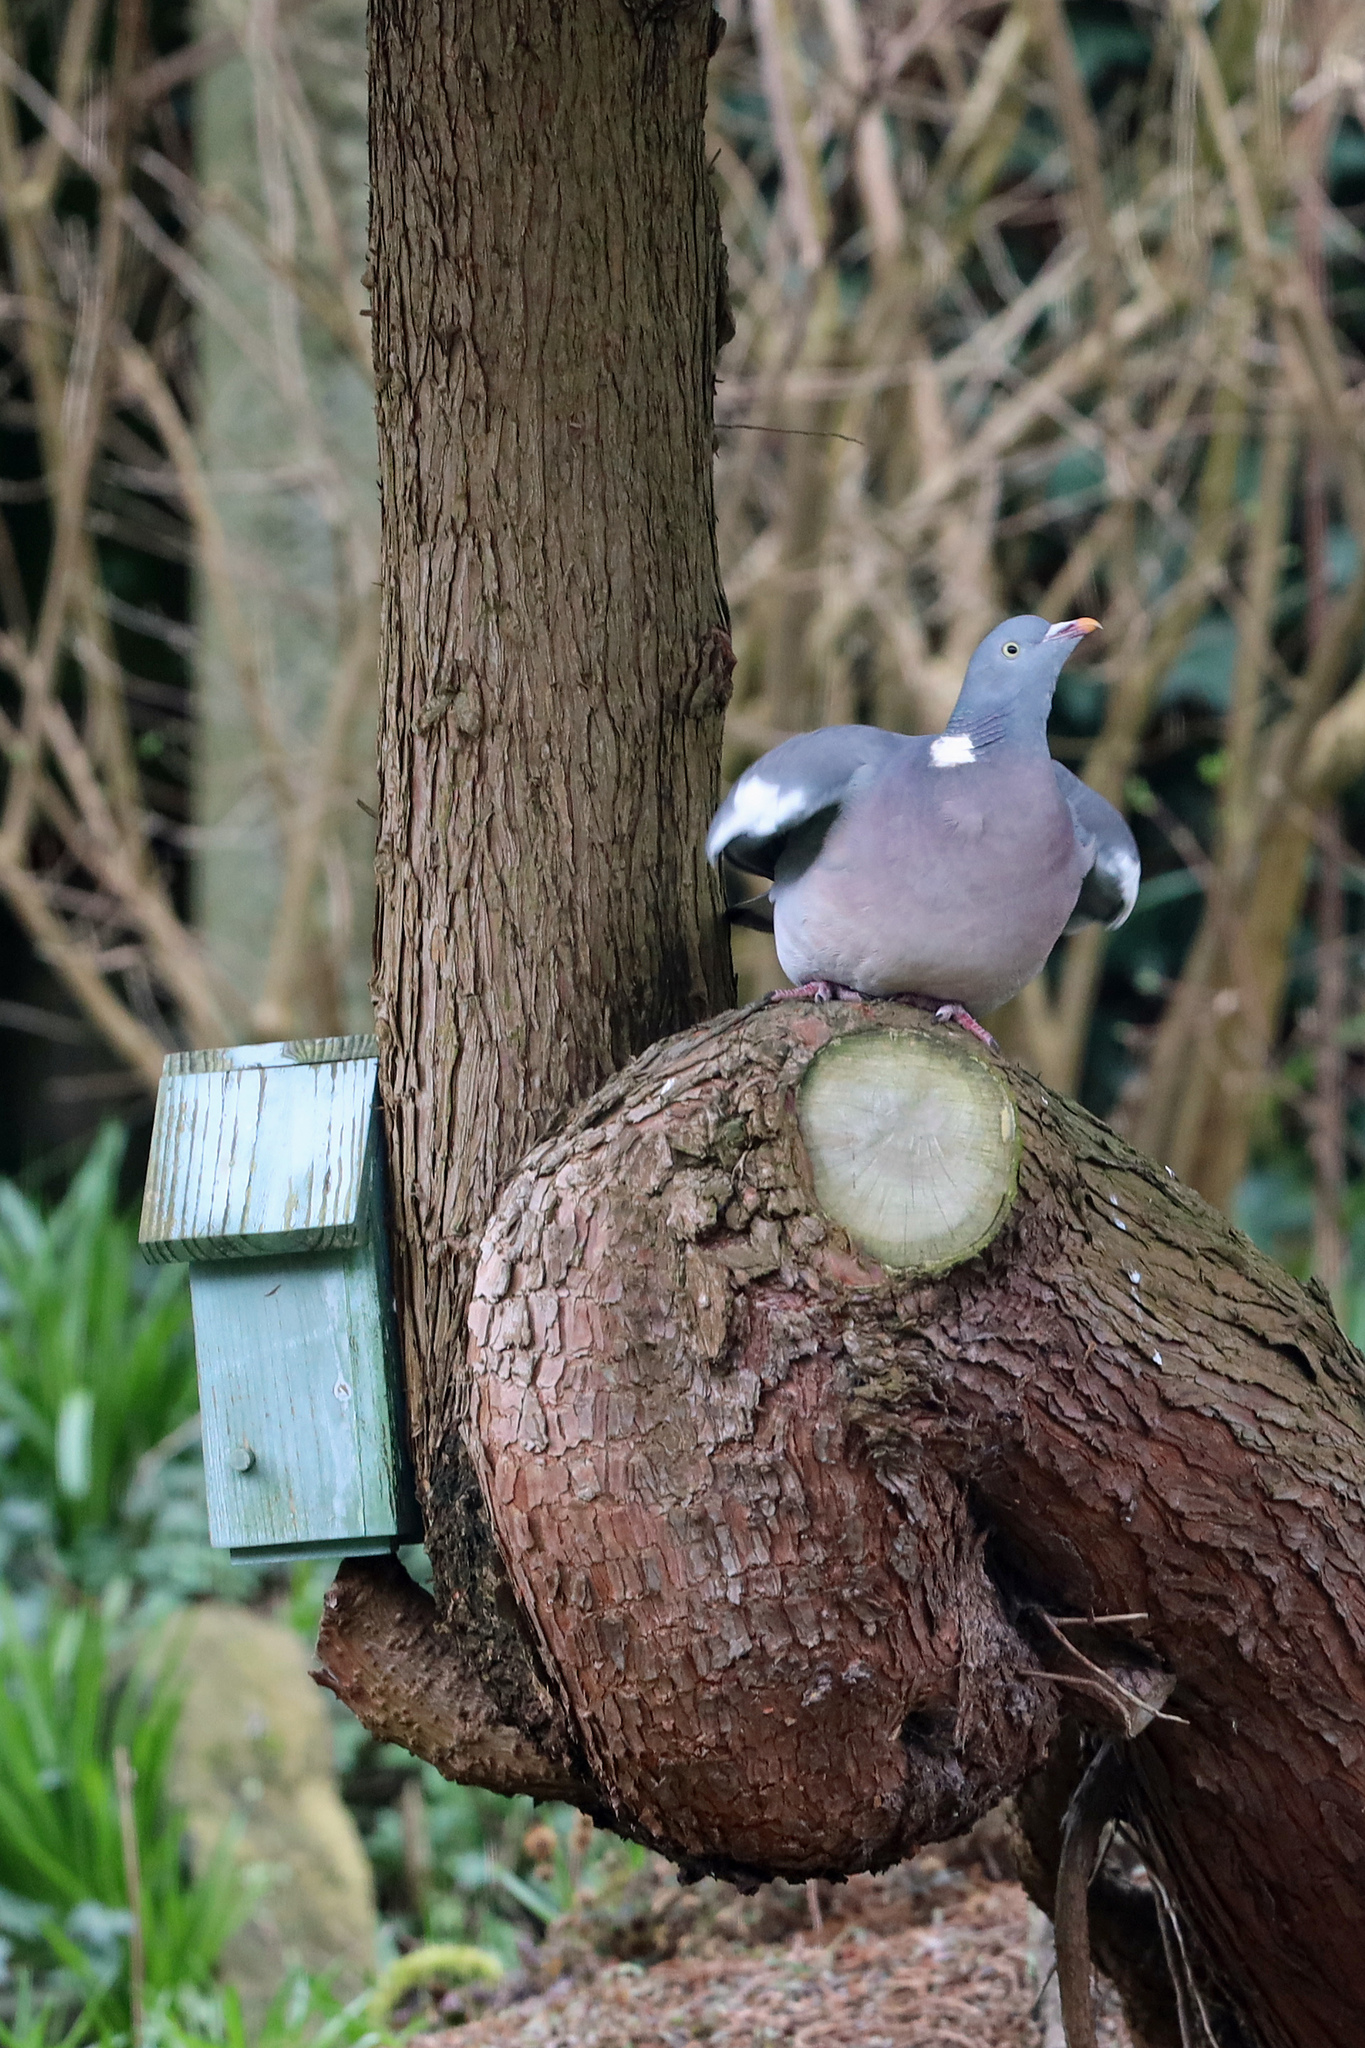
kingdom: Animalia
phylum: Chordata
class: Aves
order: Columbiformes
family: Columbidae
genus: Columba
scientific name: Columba palumbus
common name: Common wood pigeon
